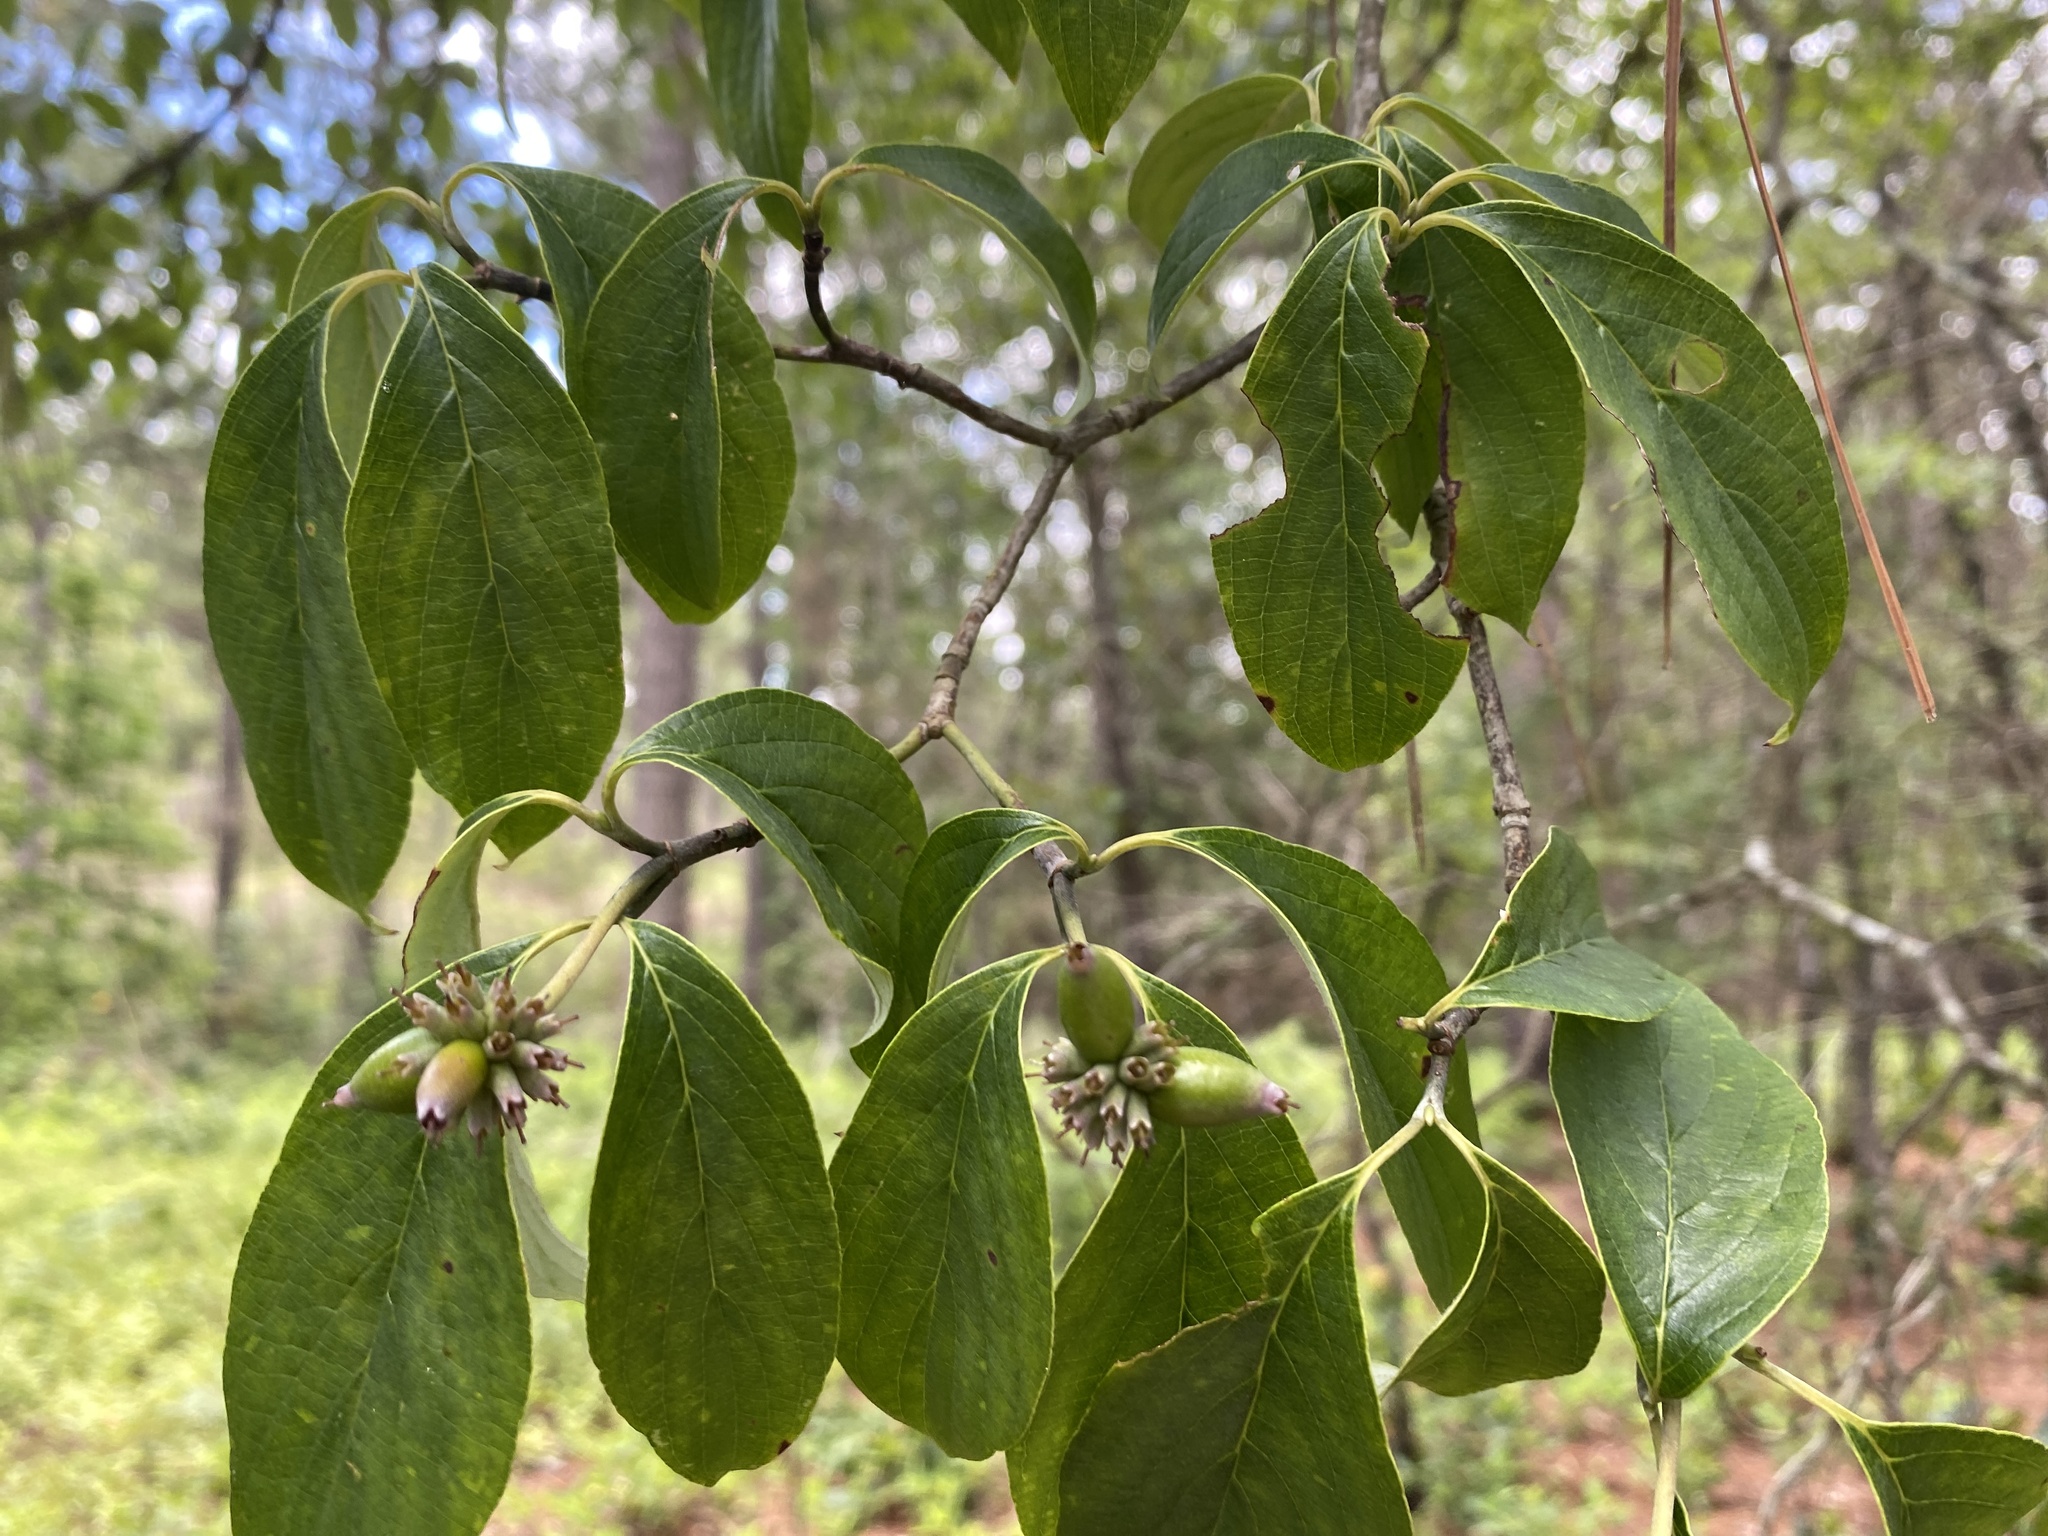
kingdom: Plantae
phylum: Tracheophyta
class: Magnoliopsida
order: Cornales
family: Cornaceae
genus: Cornus
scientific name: Cornus florida
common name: Flowering dogwood
